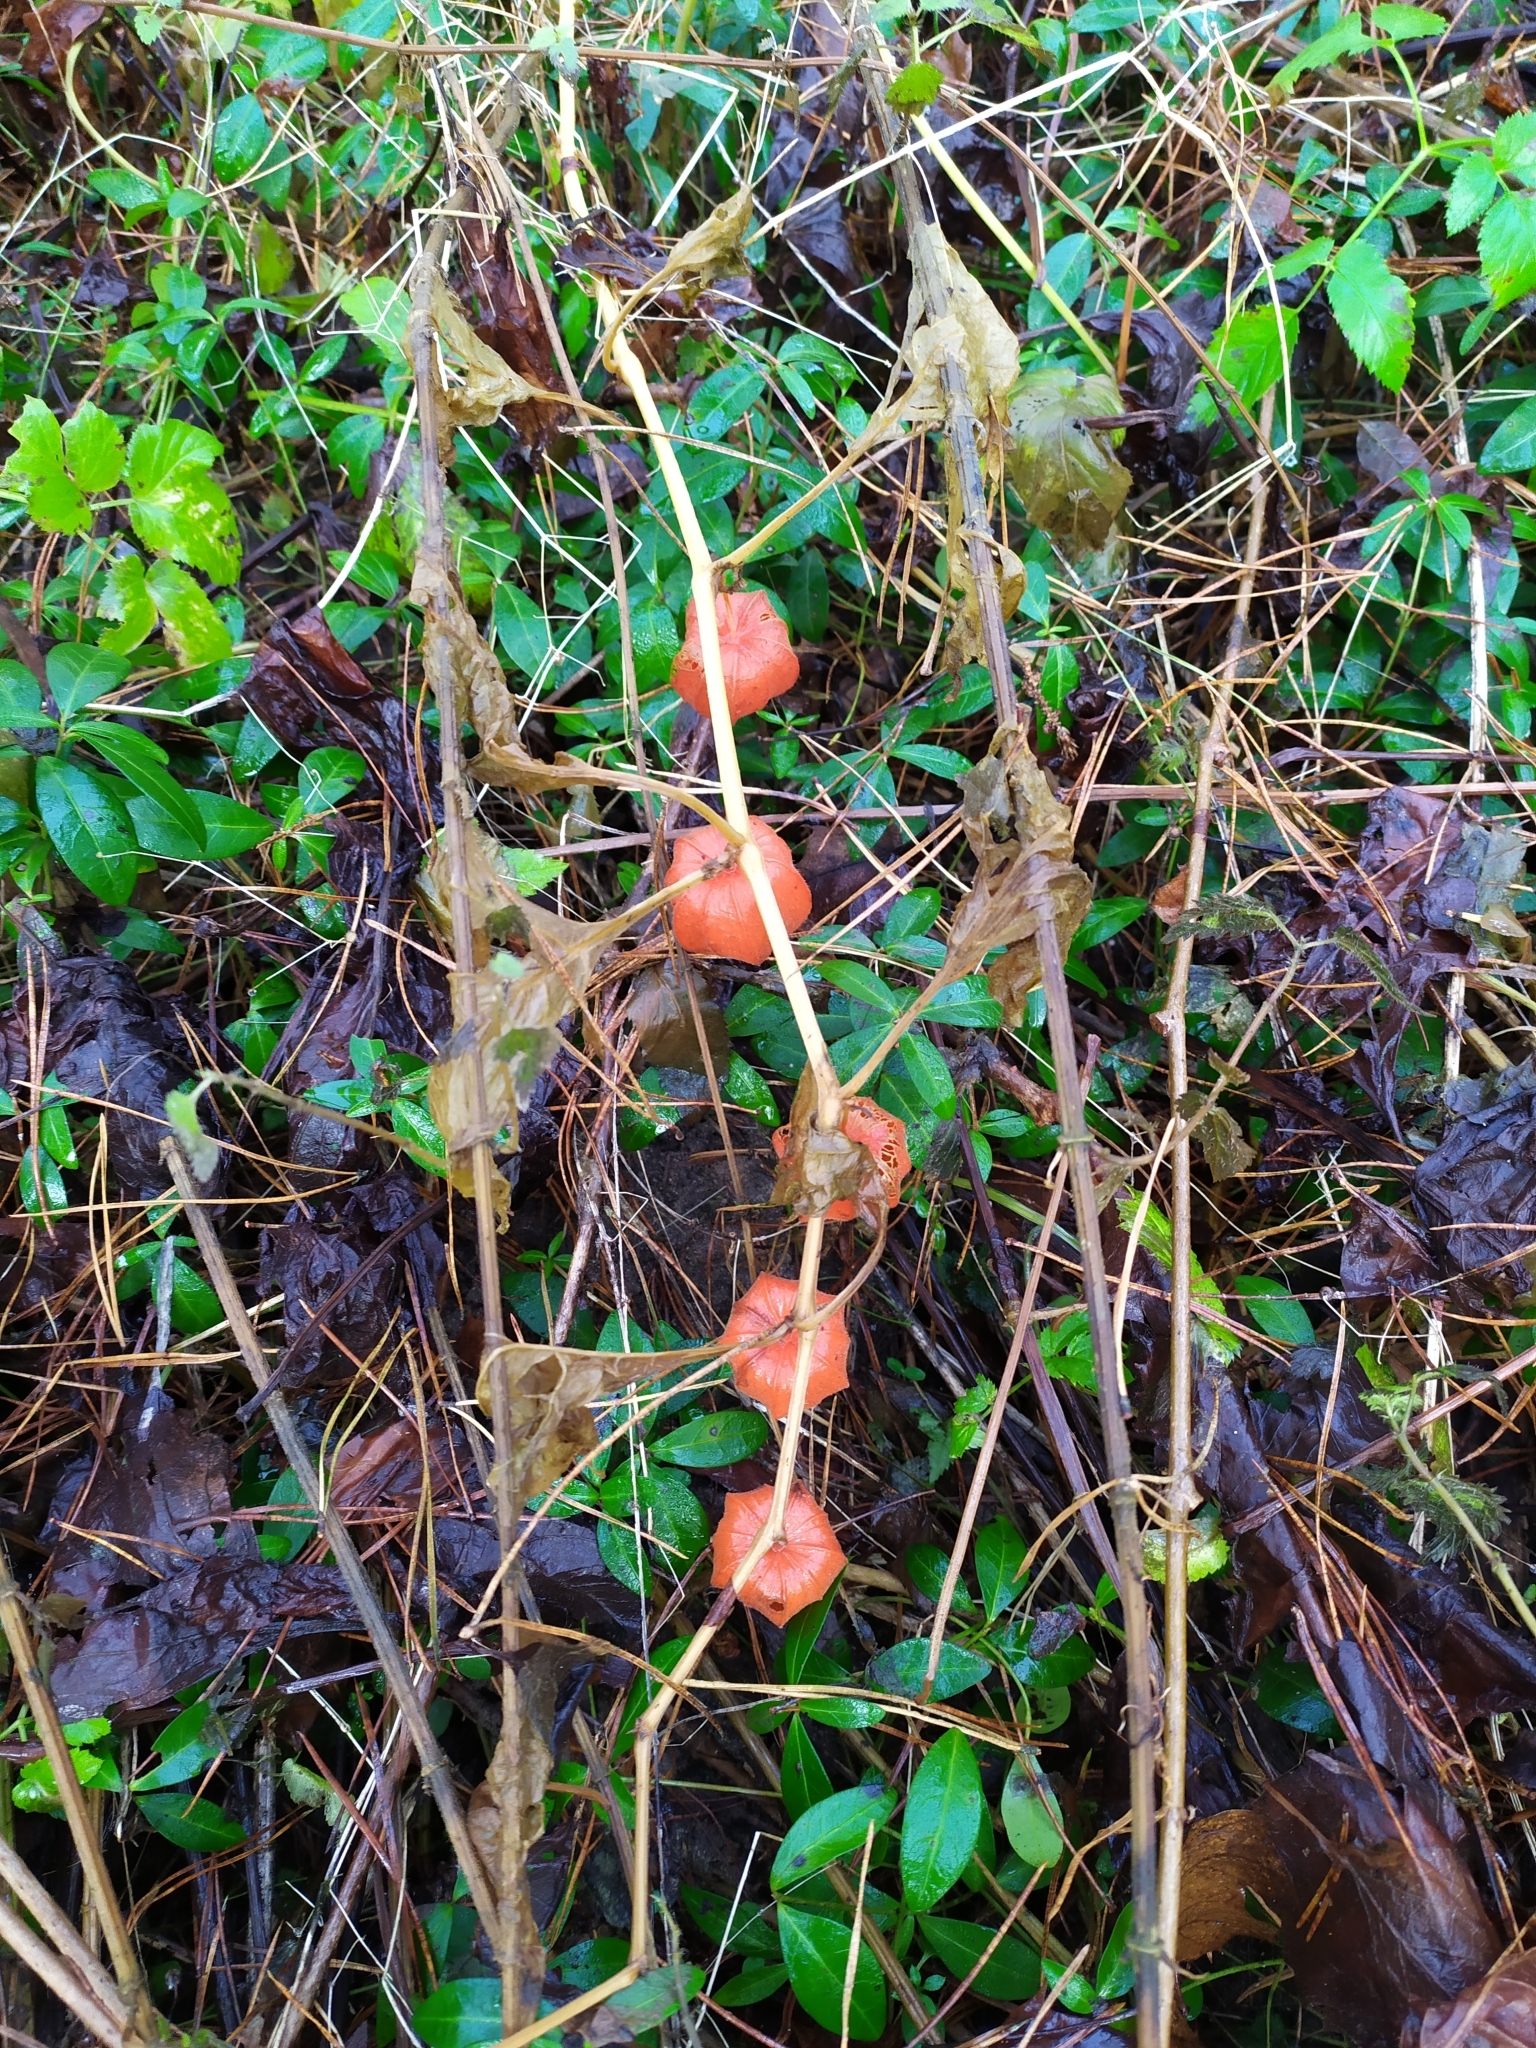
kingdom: Plantae
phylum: Tracheophyta
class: Magnoliopsida
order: Solanales
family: Solanaceae
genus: Alkekengi
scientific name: Alkekengi officinarum
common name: Japanese-lantern
